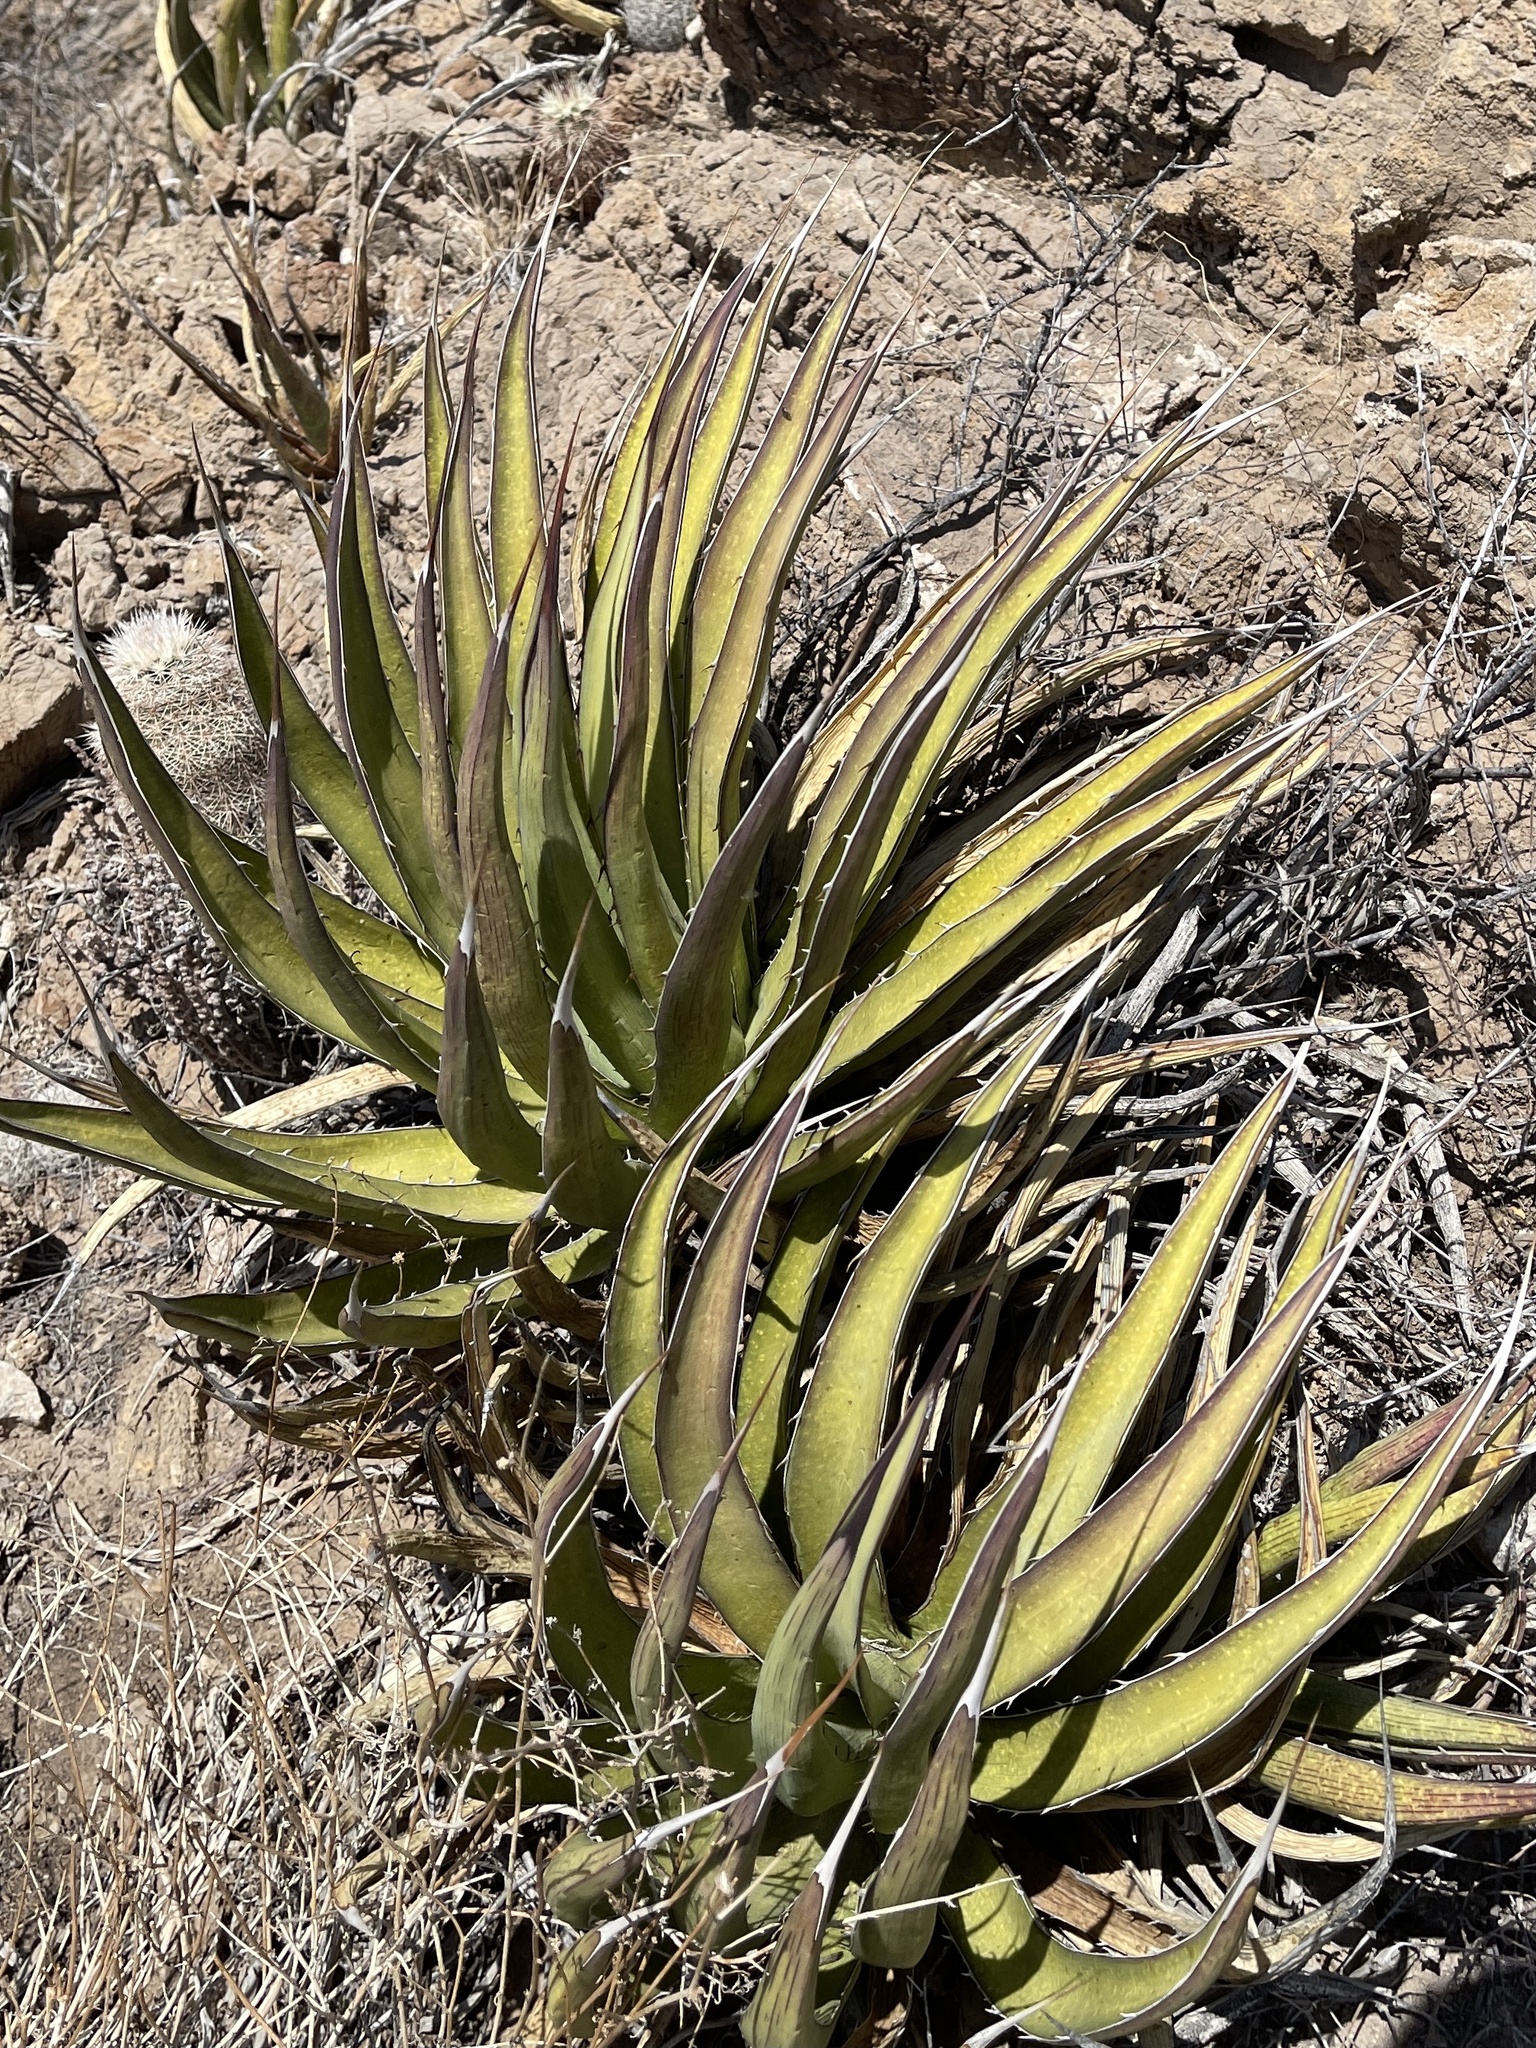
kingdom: Plantae
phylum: Tracheophyta
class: Liliopsida
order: Asparagales
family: Asparagaceae
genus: Agave
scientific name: Agave lechuguilla
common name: Lecheguilla agave
